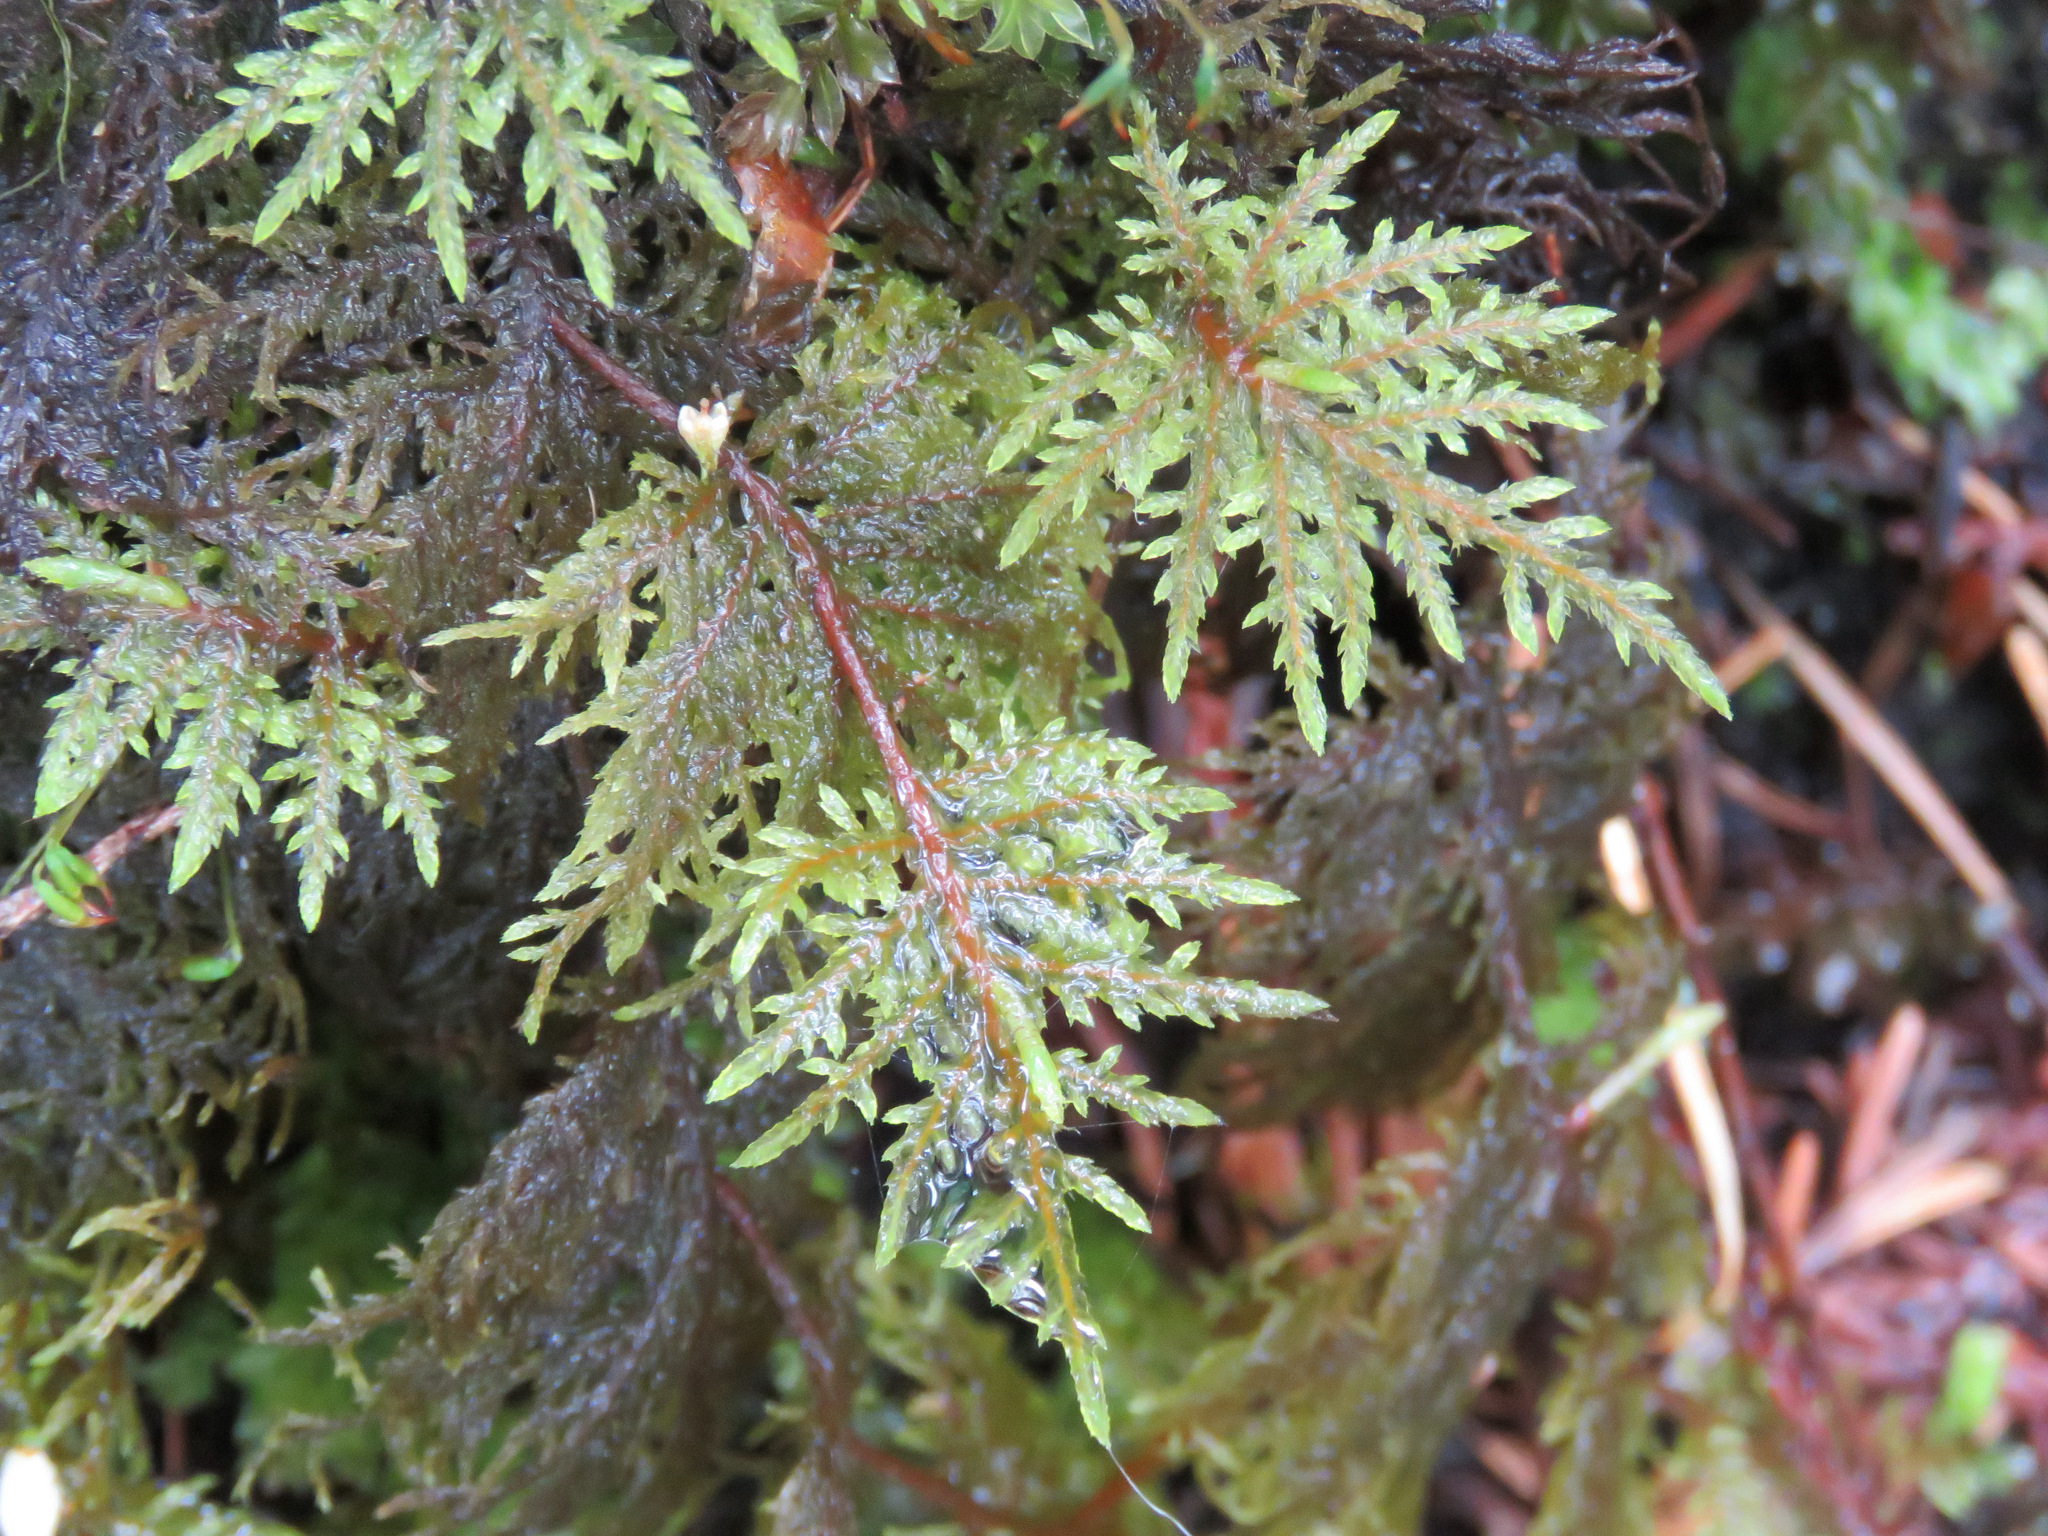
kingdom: Plantae
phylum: Bryophyta
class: Bryopsida
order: Hypnales
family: Hylocomiaceae
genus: Hylocomium
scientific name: Hylocomium splendens
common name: Stairstep moss
